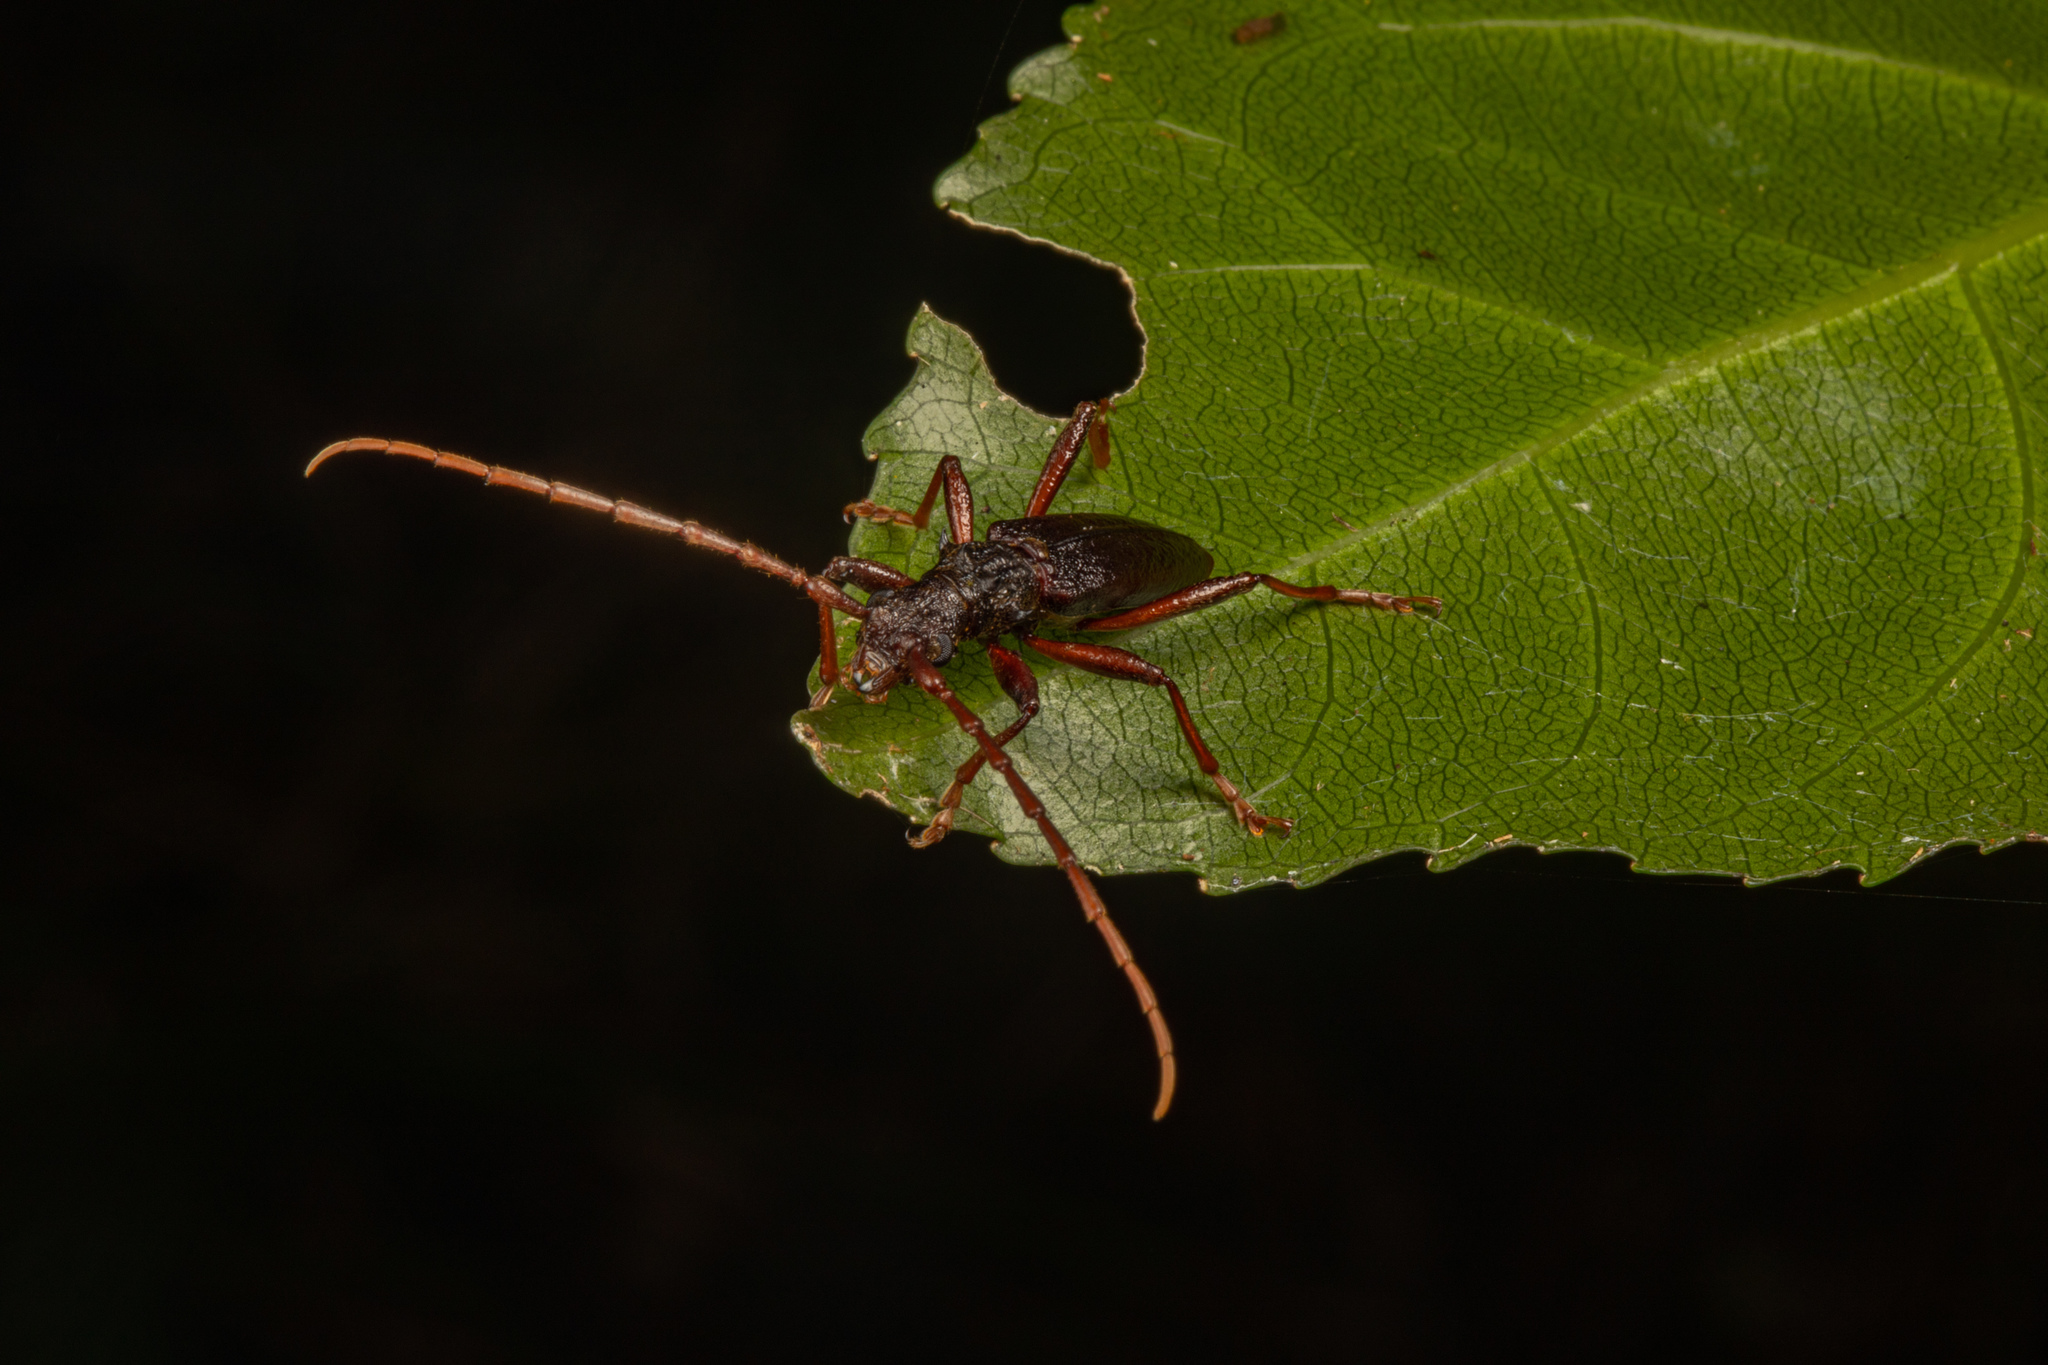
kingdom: Animalia
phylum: Arthropoda
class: Insecta
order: Coleoptera
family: Cerambycidae
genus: Nesoptychias
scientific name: Nesoptychias
